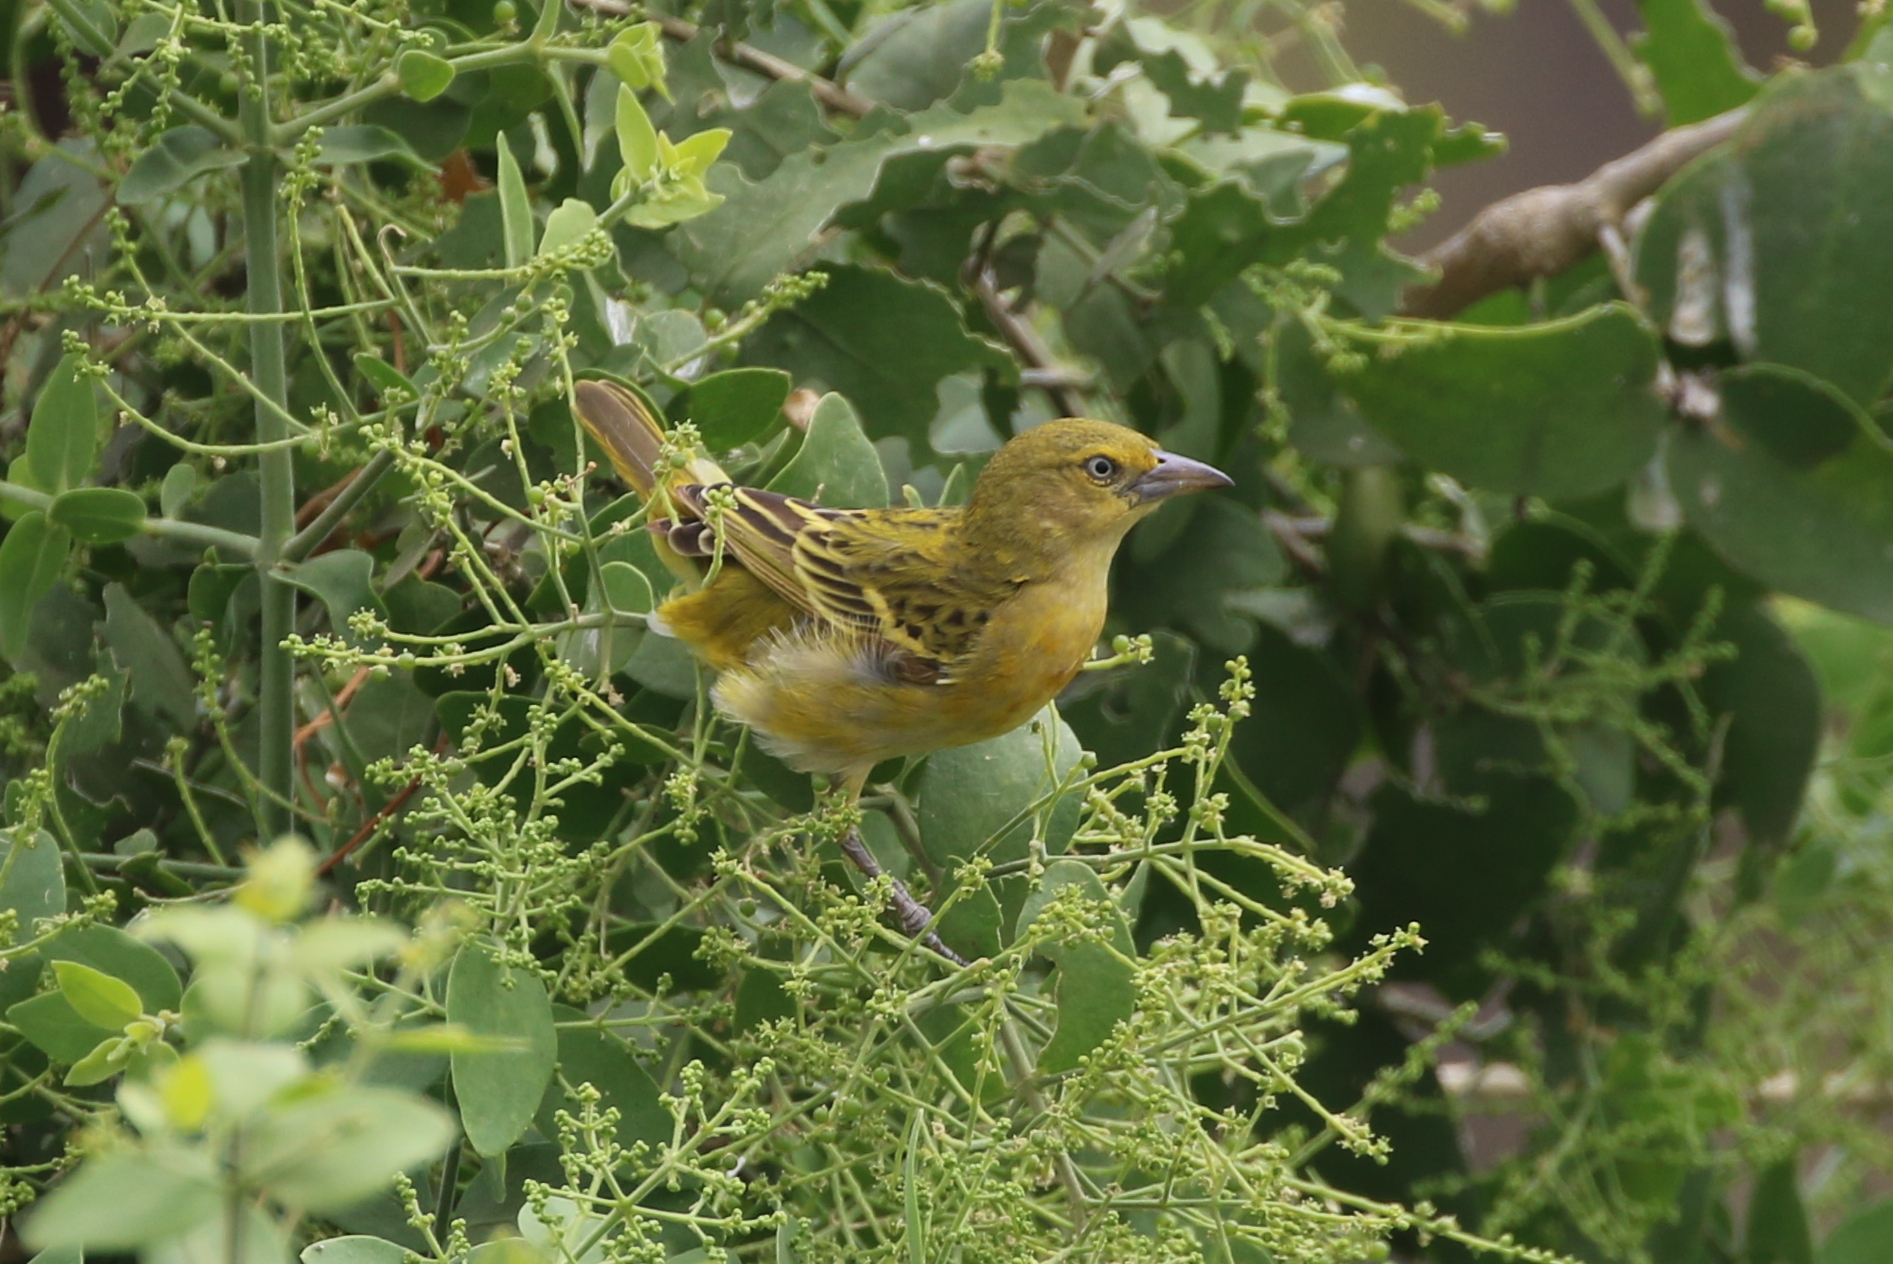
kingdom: Animalia
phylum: Chordata
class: Aves
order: Passeriformes
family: Ploceidae
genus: Ploceus
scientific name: Ploceus intermedius
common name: Lesser masked weaver
